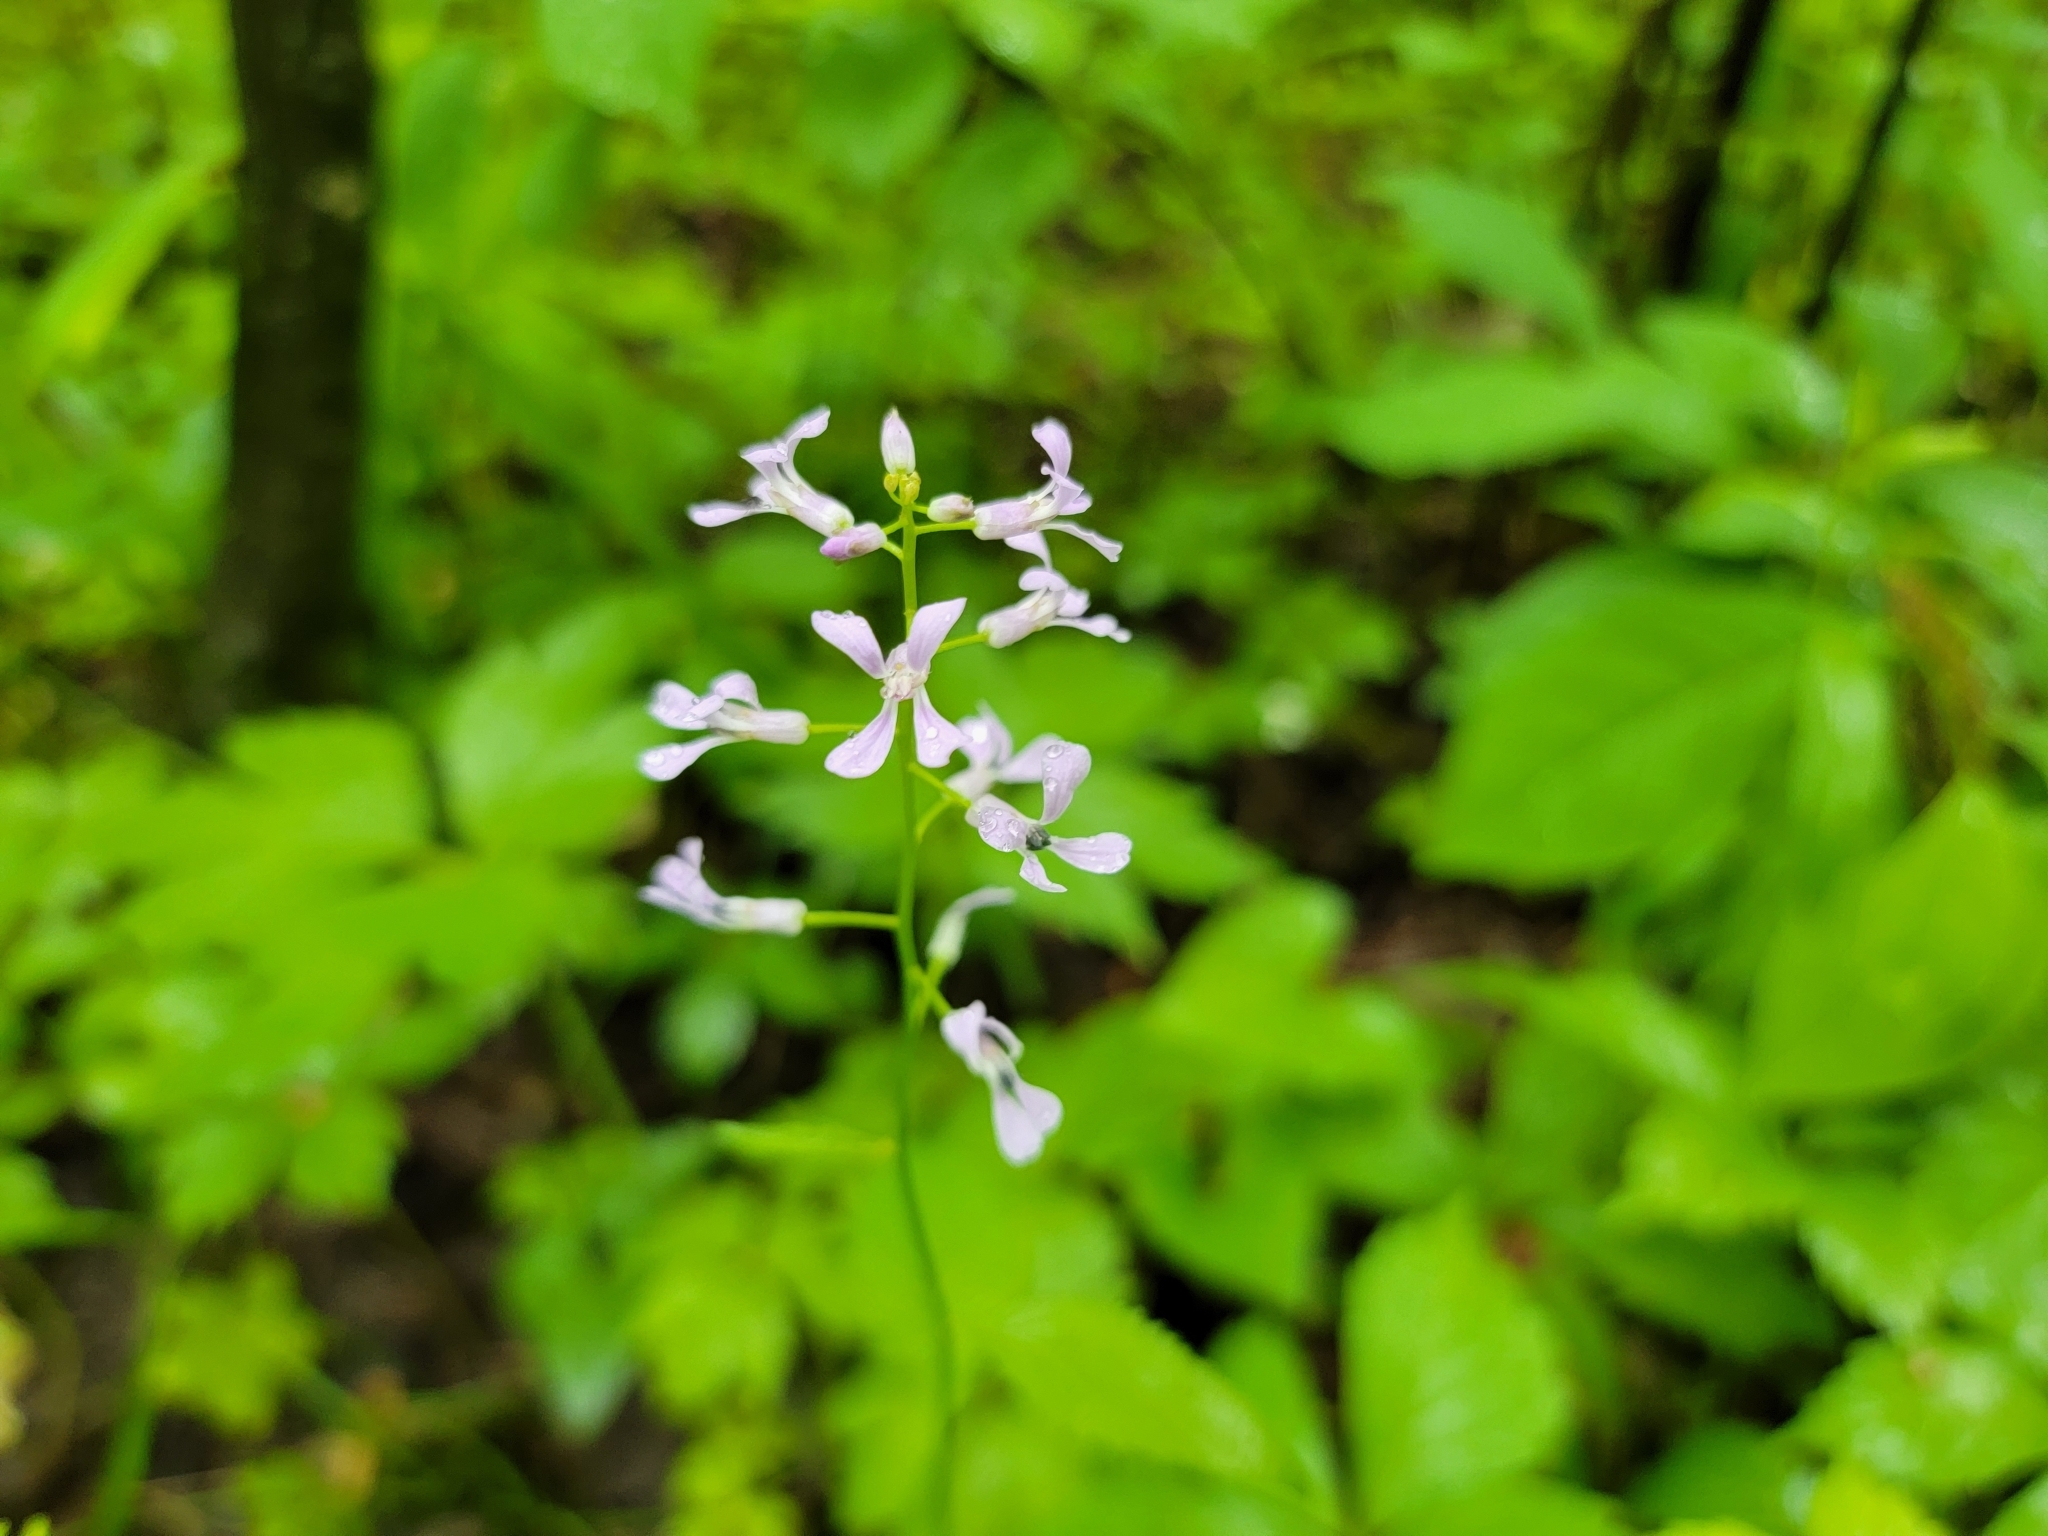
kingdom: Plantae
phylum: Tracheophyta
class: Magnoliopsida
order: Brassicales
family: Brassicaceae
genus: Iodanthus
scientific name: Iodanthus pinnatifidus
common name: Violet rocket
